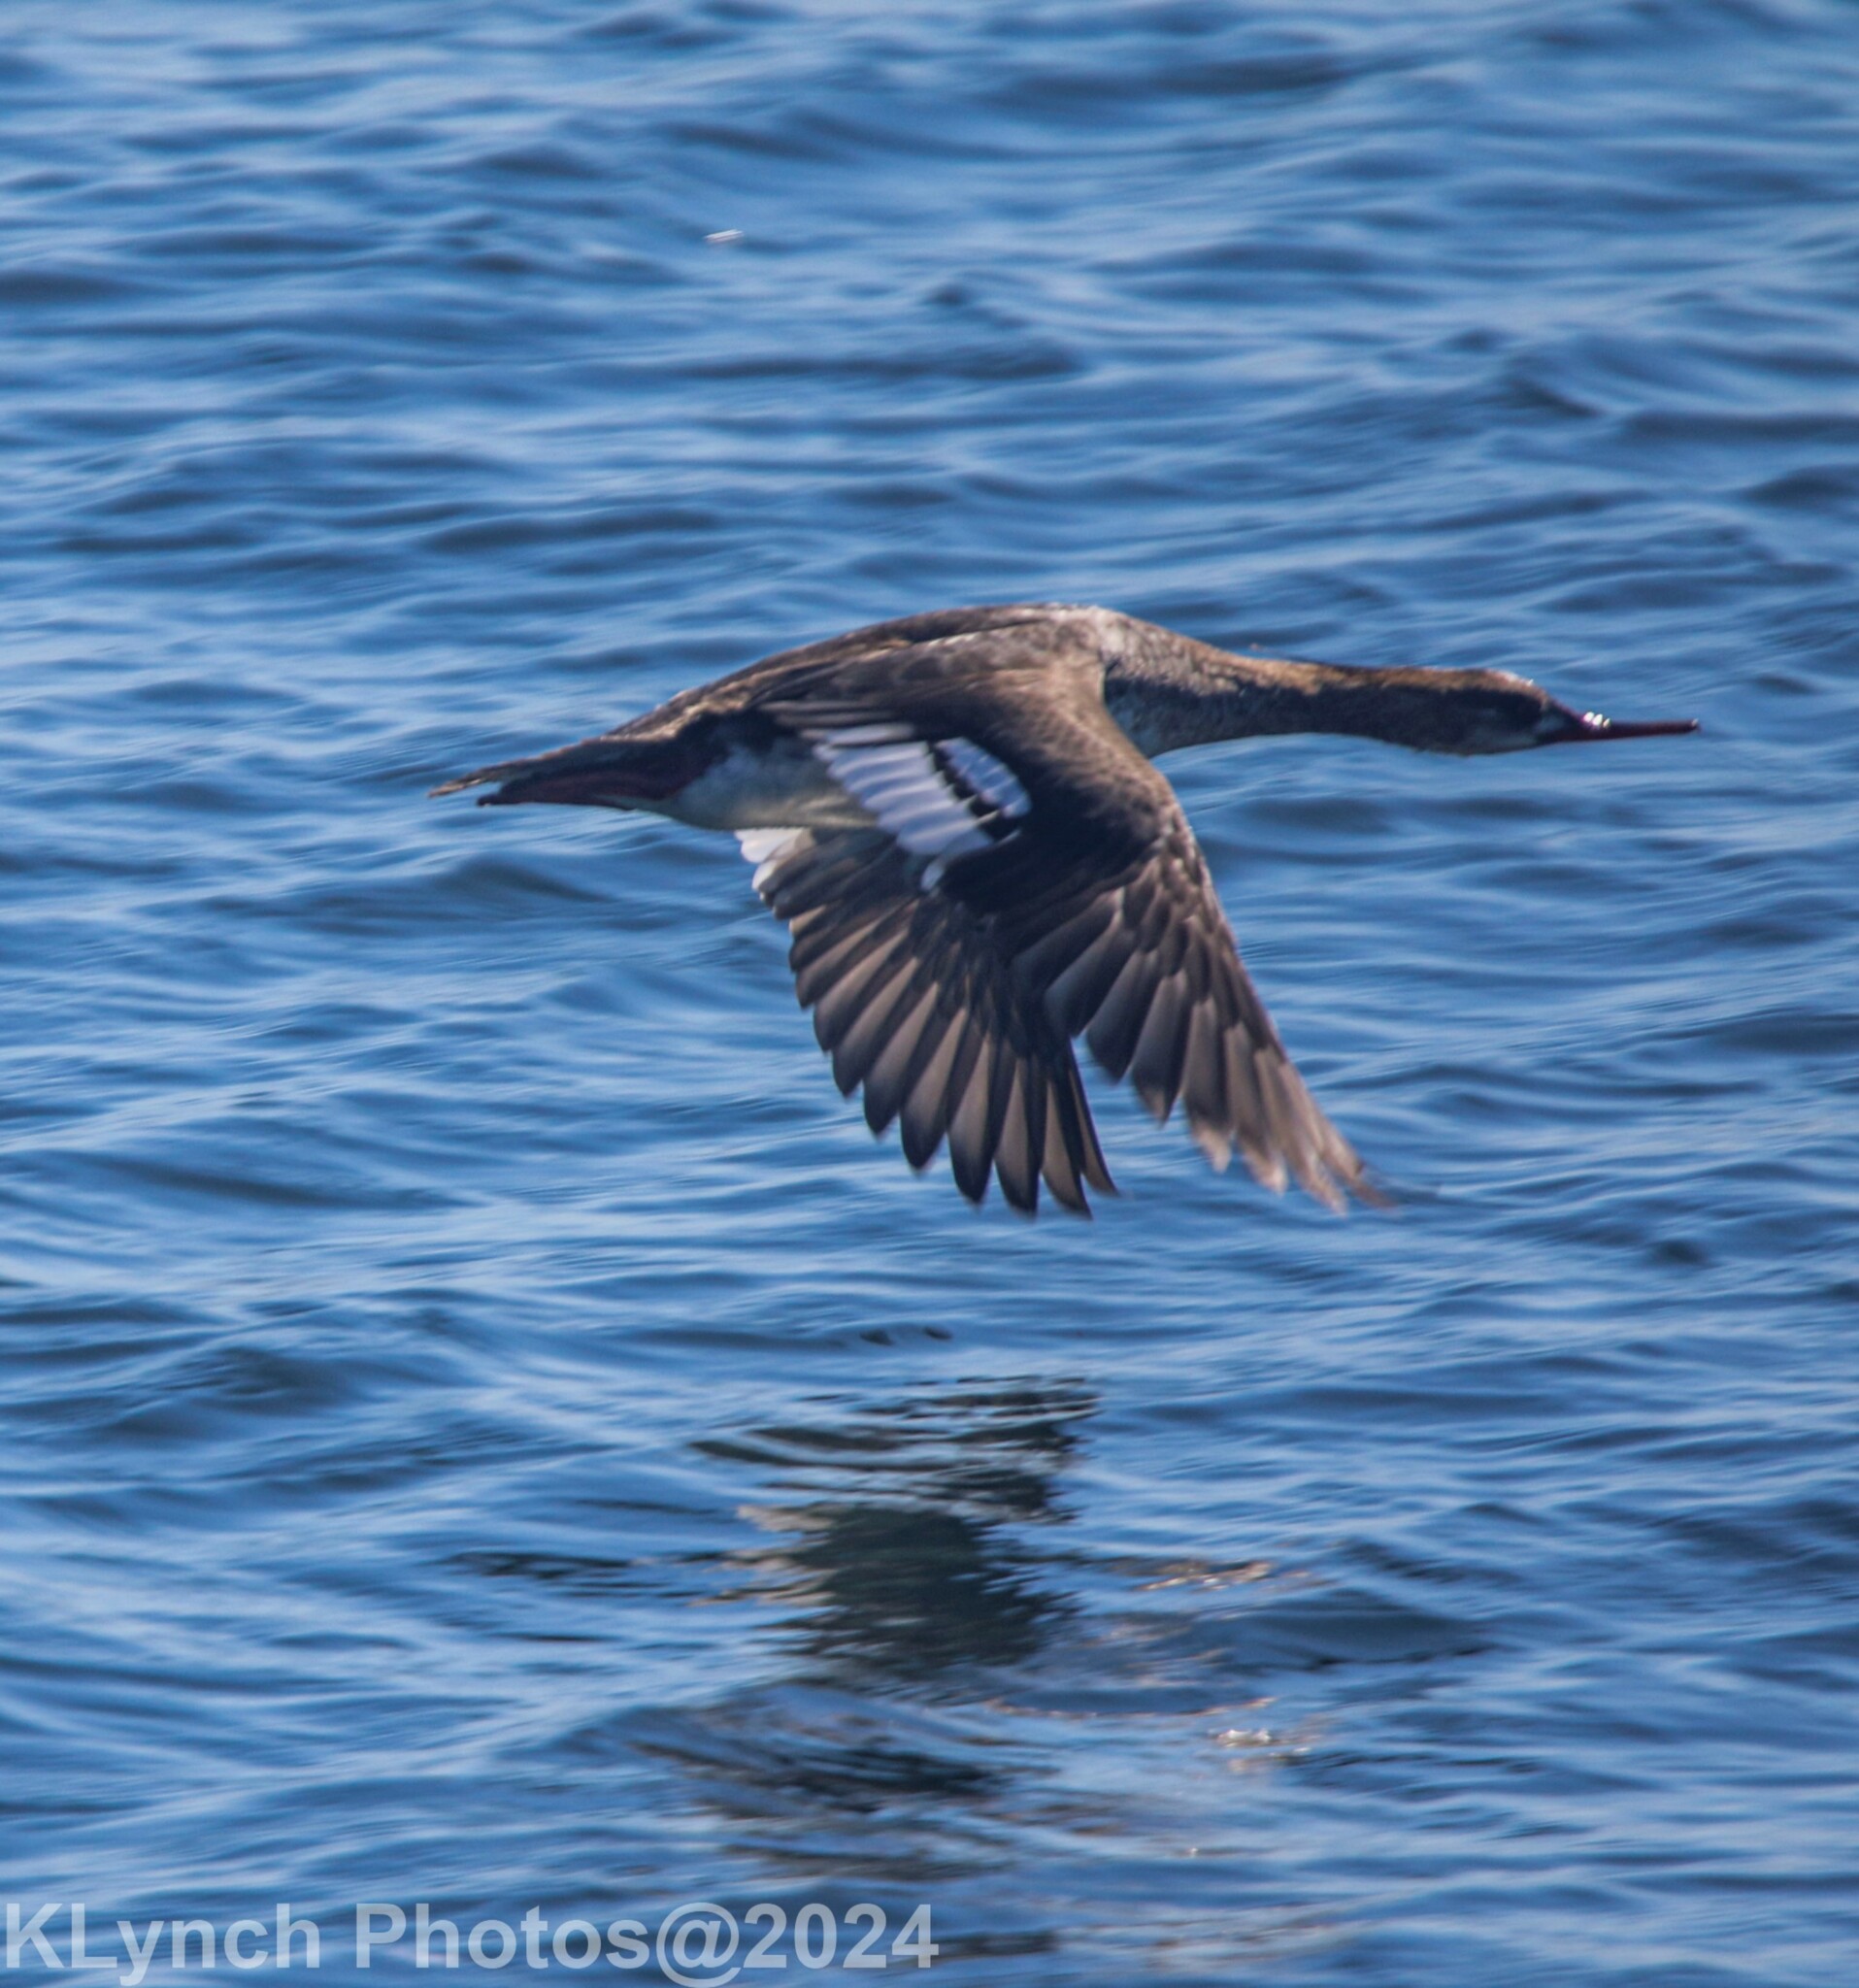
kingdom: Animalia
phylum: Chordata
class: Aves
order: Anseriformes
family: Anatidae
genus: Mergus
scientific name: Mergus serrator
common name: Red-breasted merganser
